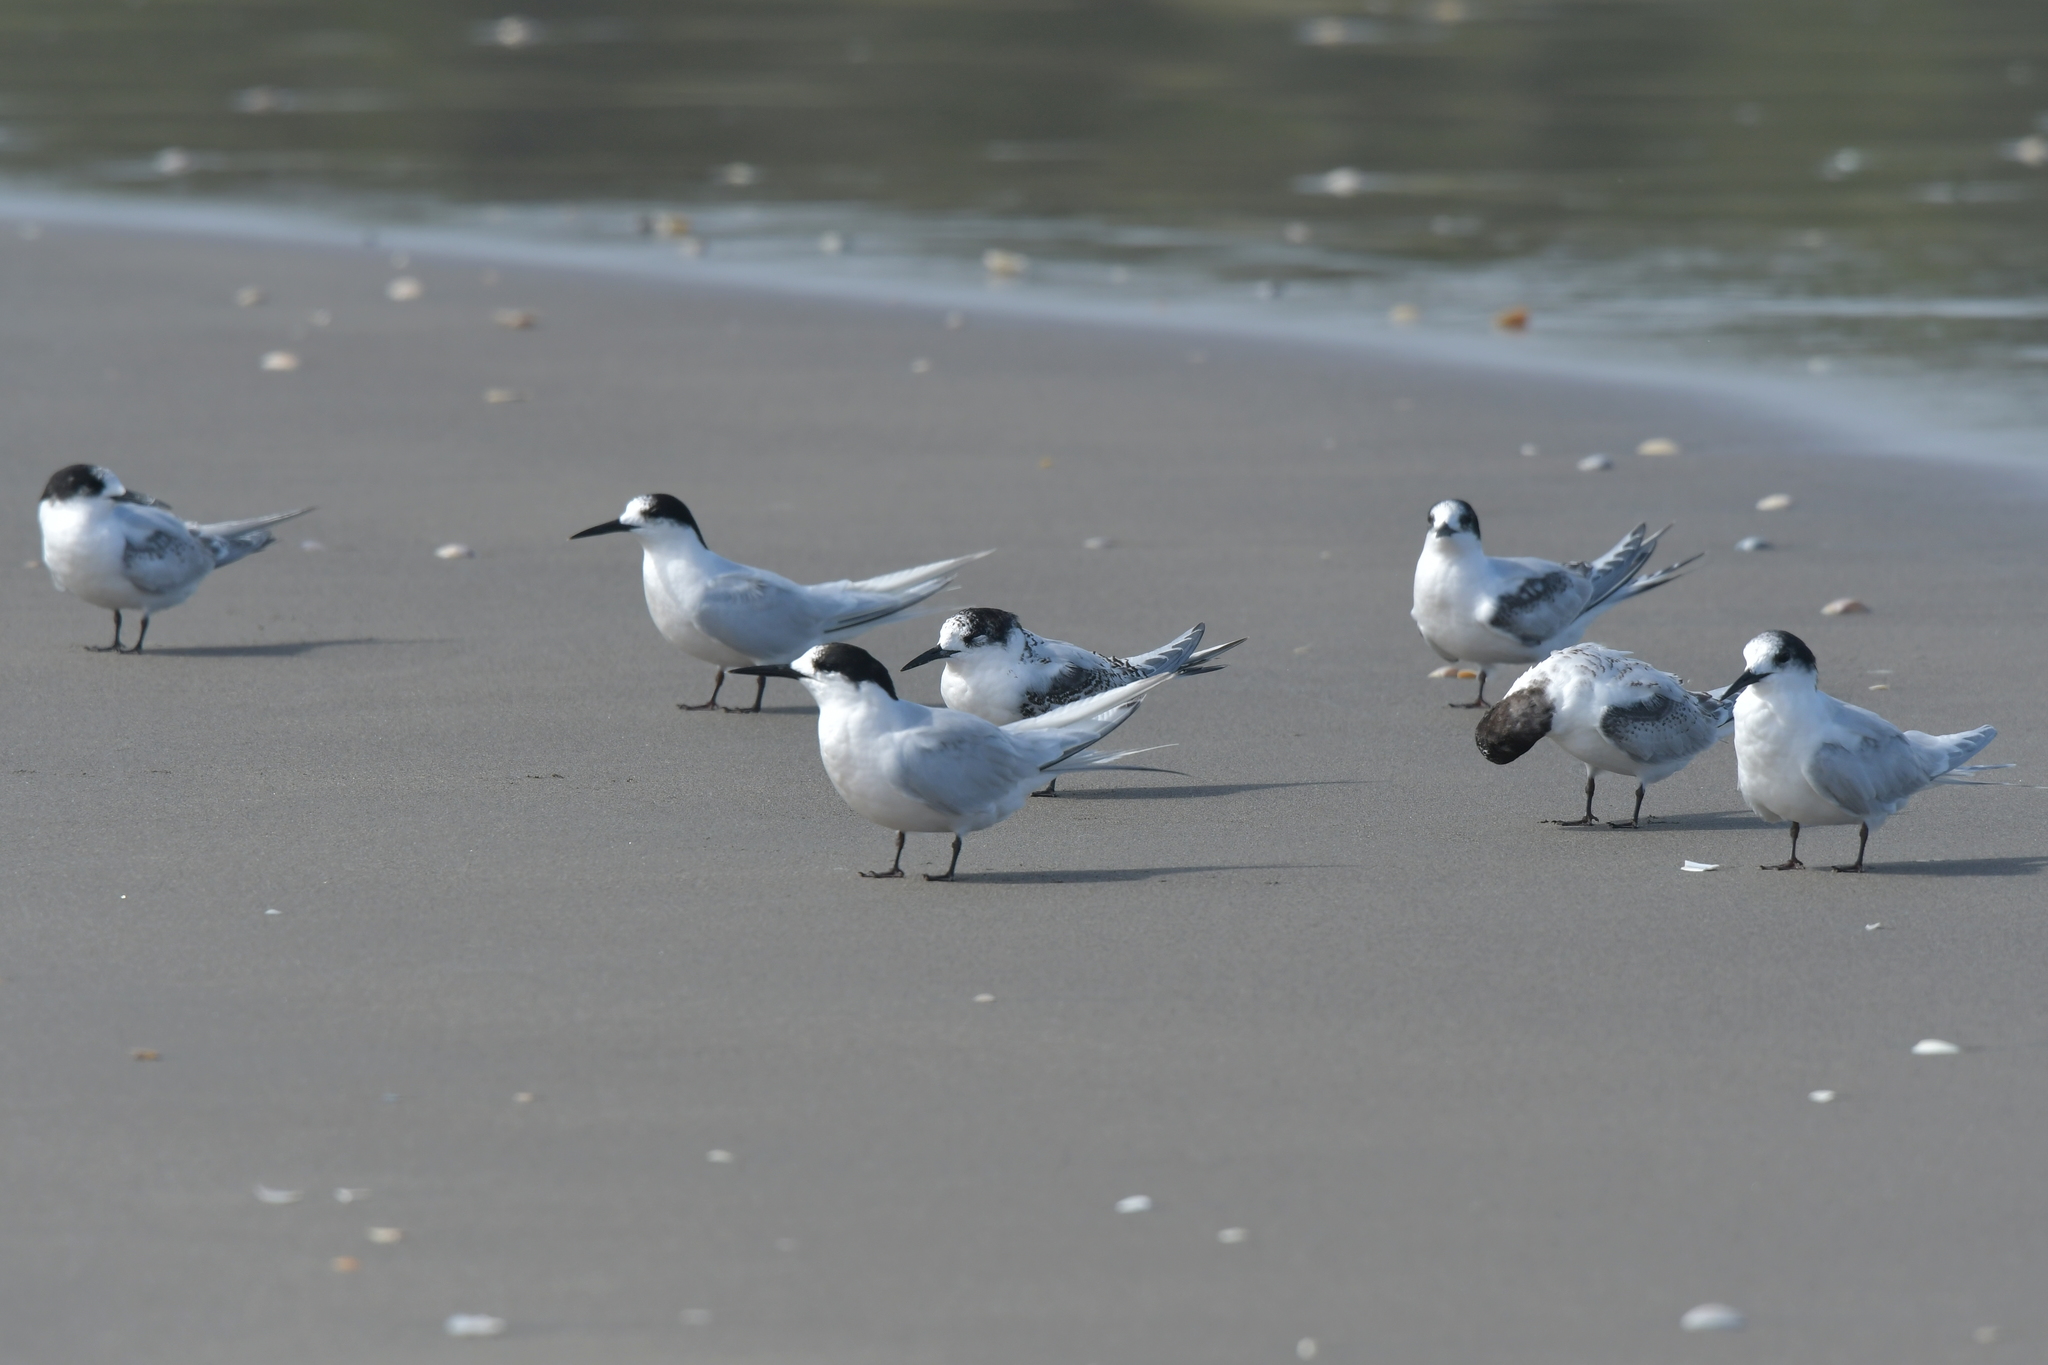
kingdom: Animalia
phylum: Chordata
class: Aves
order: Charadriiformes
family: Laridae
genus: Sterna
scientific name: Sterna striata
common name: White-fronted tern
